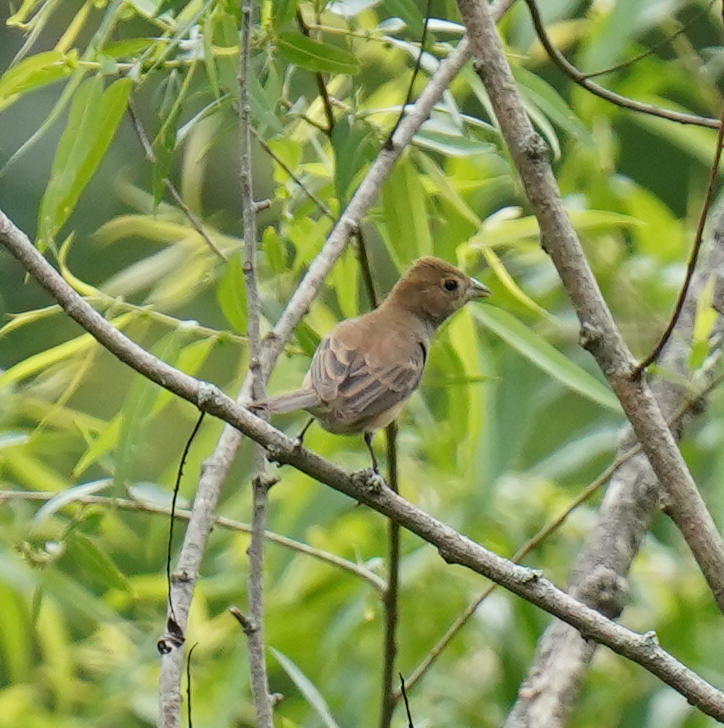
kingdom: Animalia
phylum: Chordata
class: Aves
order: Passeriformes
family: Cardinalidae
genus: Passerina
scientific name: Passerina cyanea
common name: Indigo bunting
